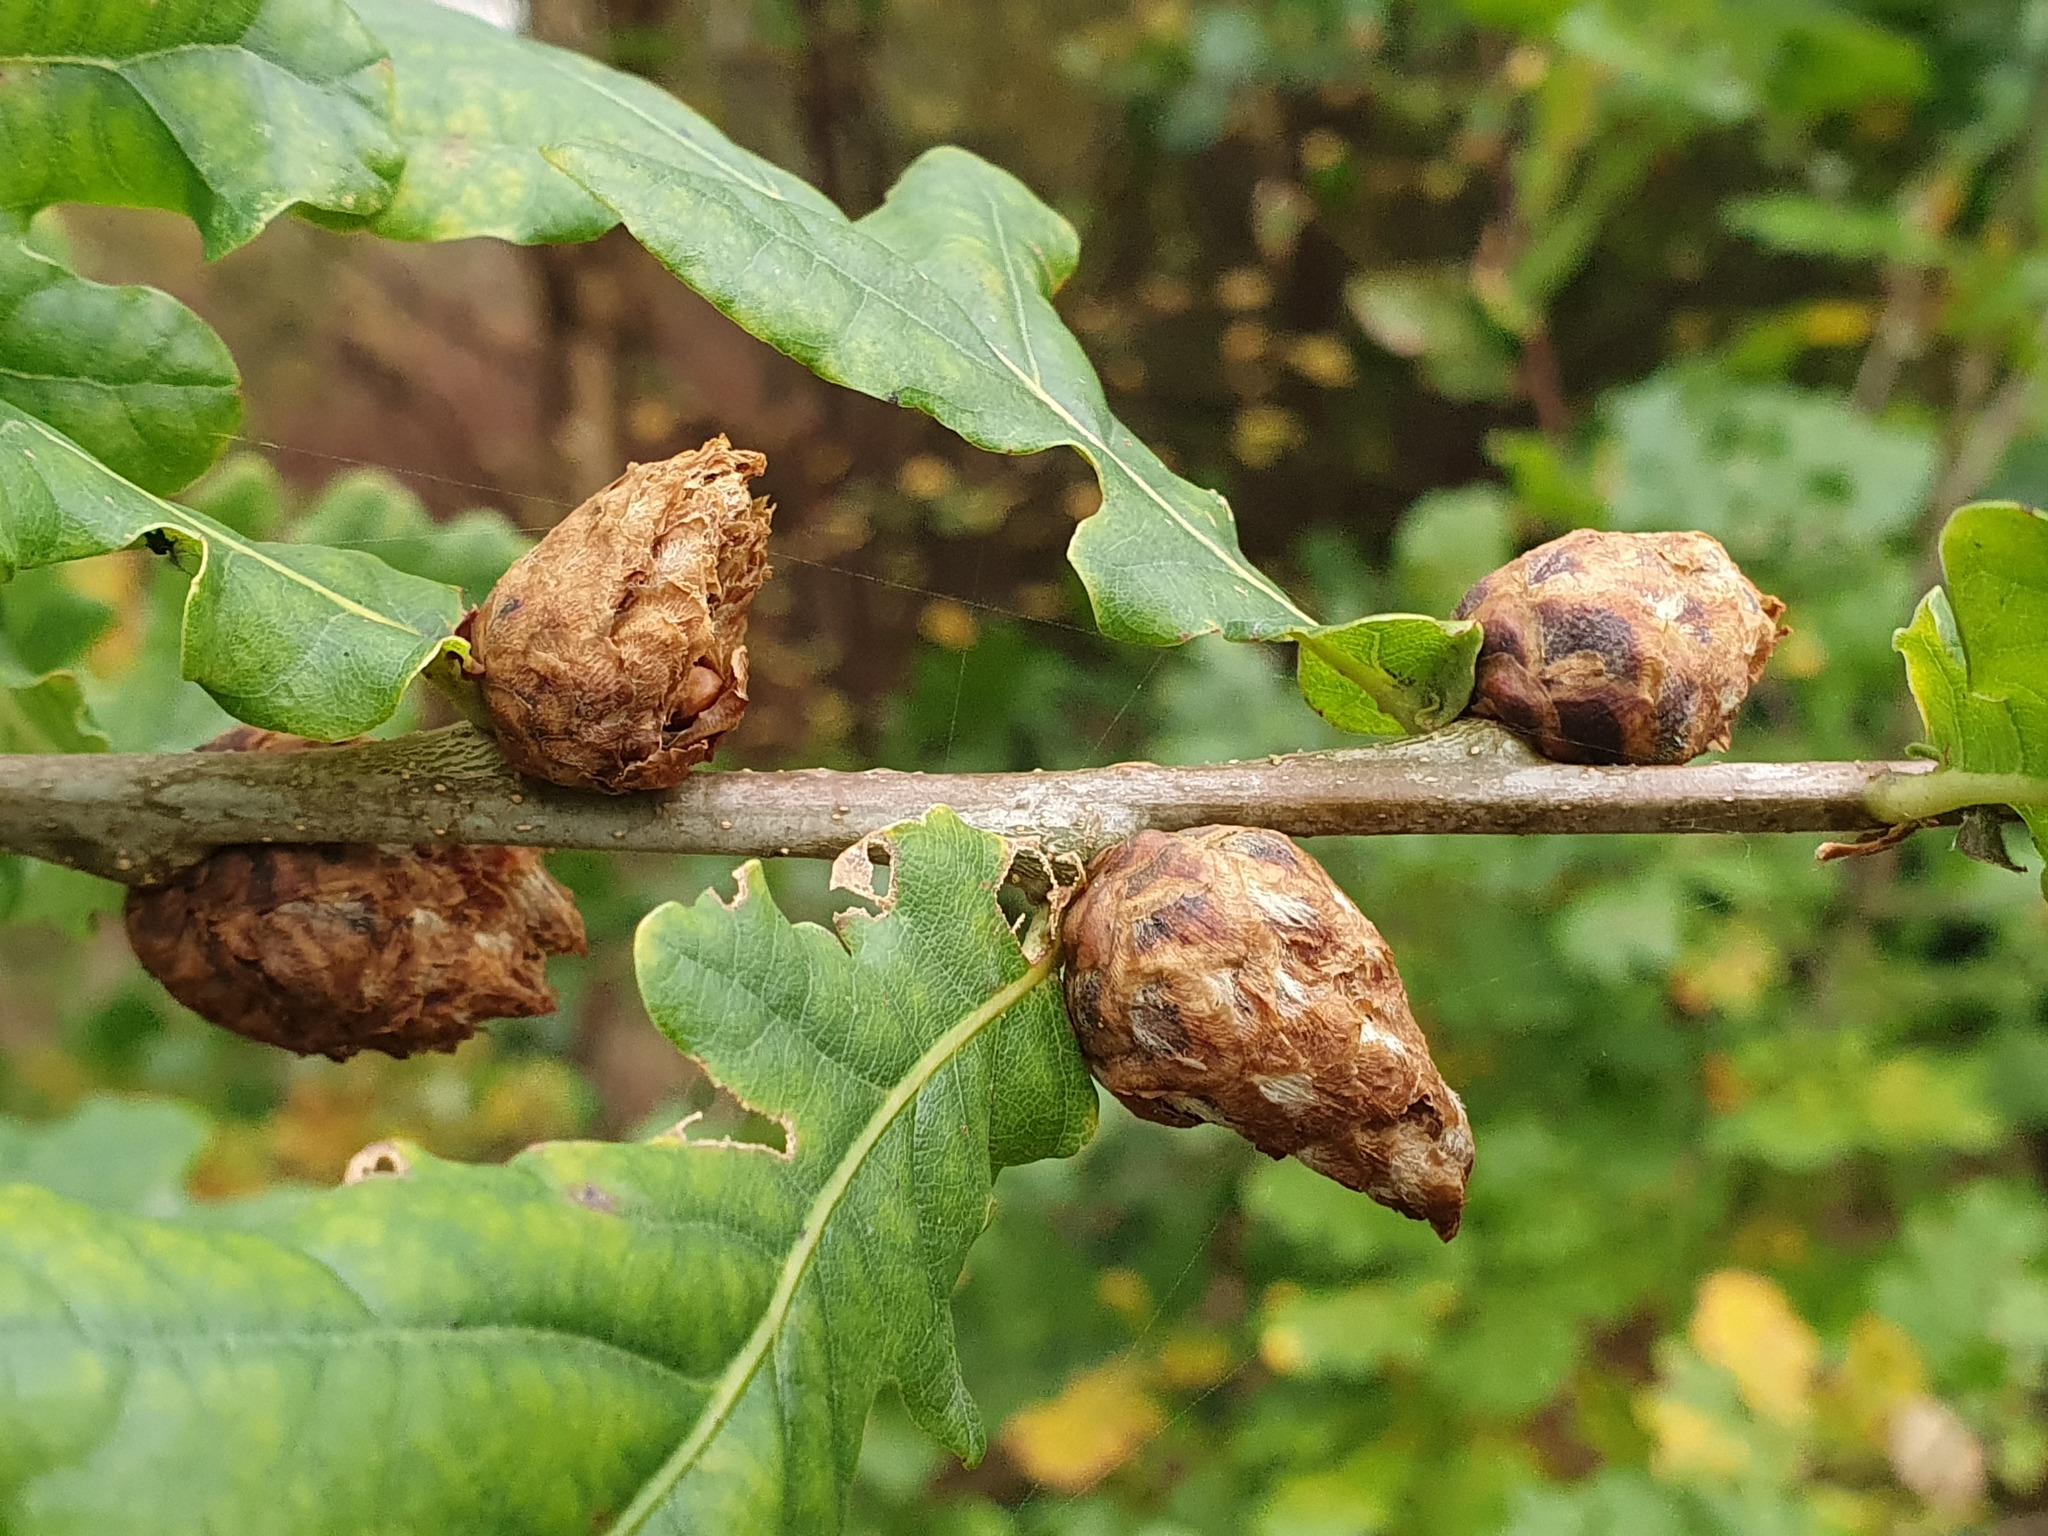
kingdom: Animalia
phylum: Arthropoda
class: Insecta
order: Hymenoptera
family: Cynipidae
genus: Andricus
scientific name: Andricus foecundatrix
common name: Artichoke gall
